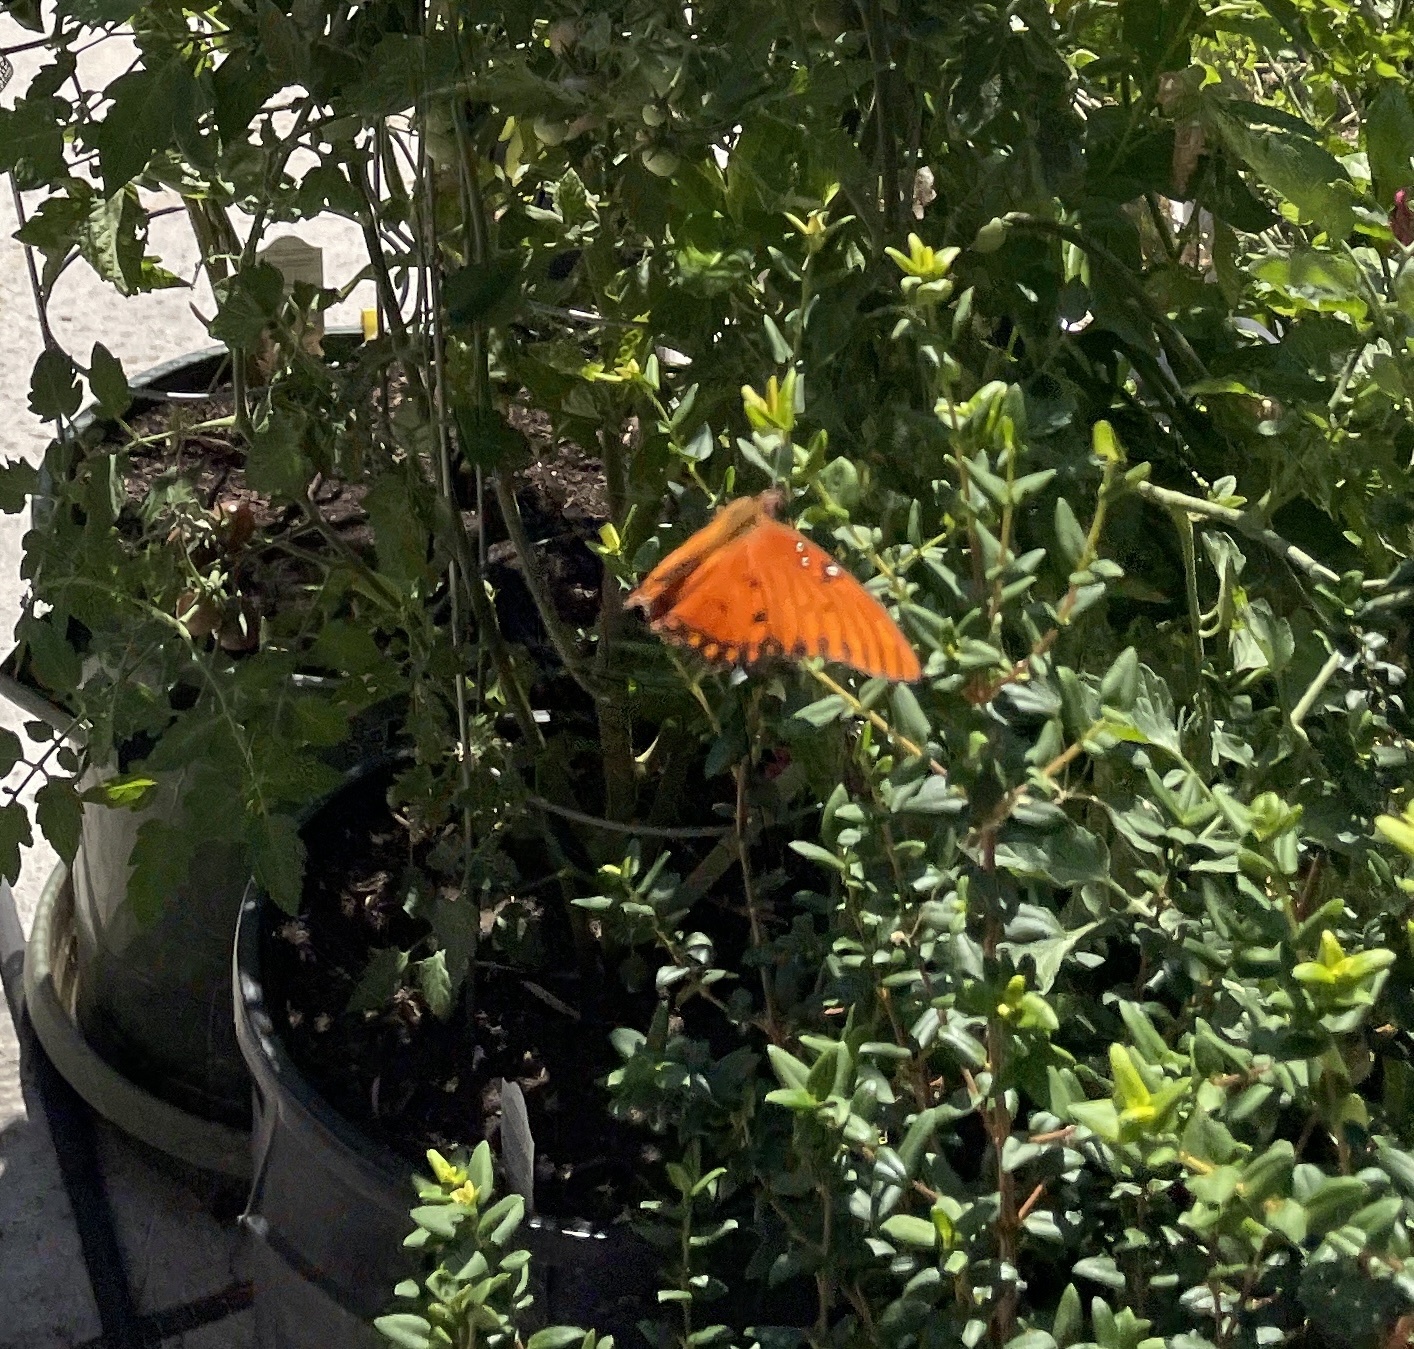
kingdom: Animalia
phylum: Arthropoda
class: Insecta
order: Lepidoptera
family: Nymphalidae
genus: Dione
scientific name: Dione vanillae
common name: Gulf fritillary
